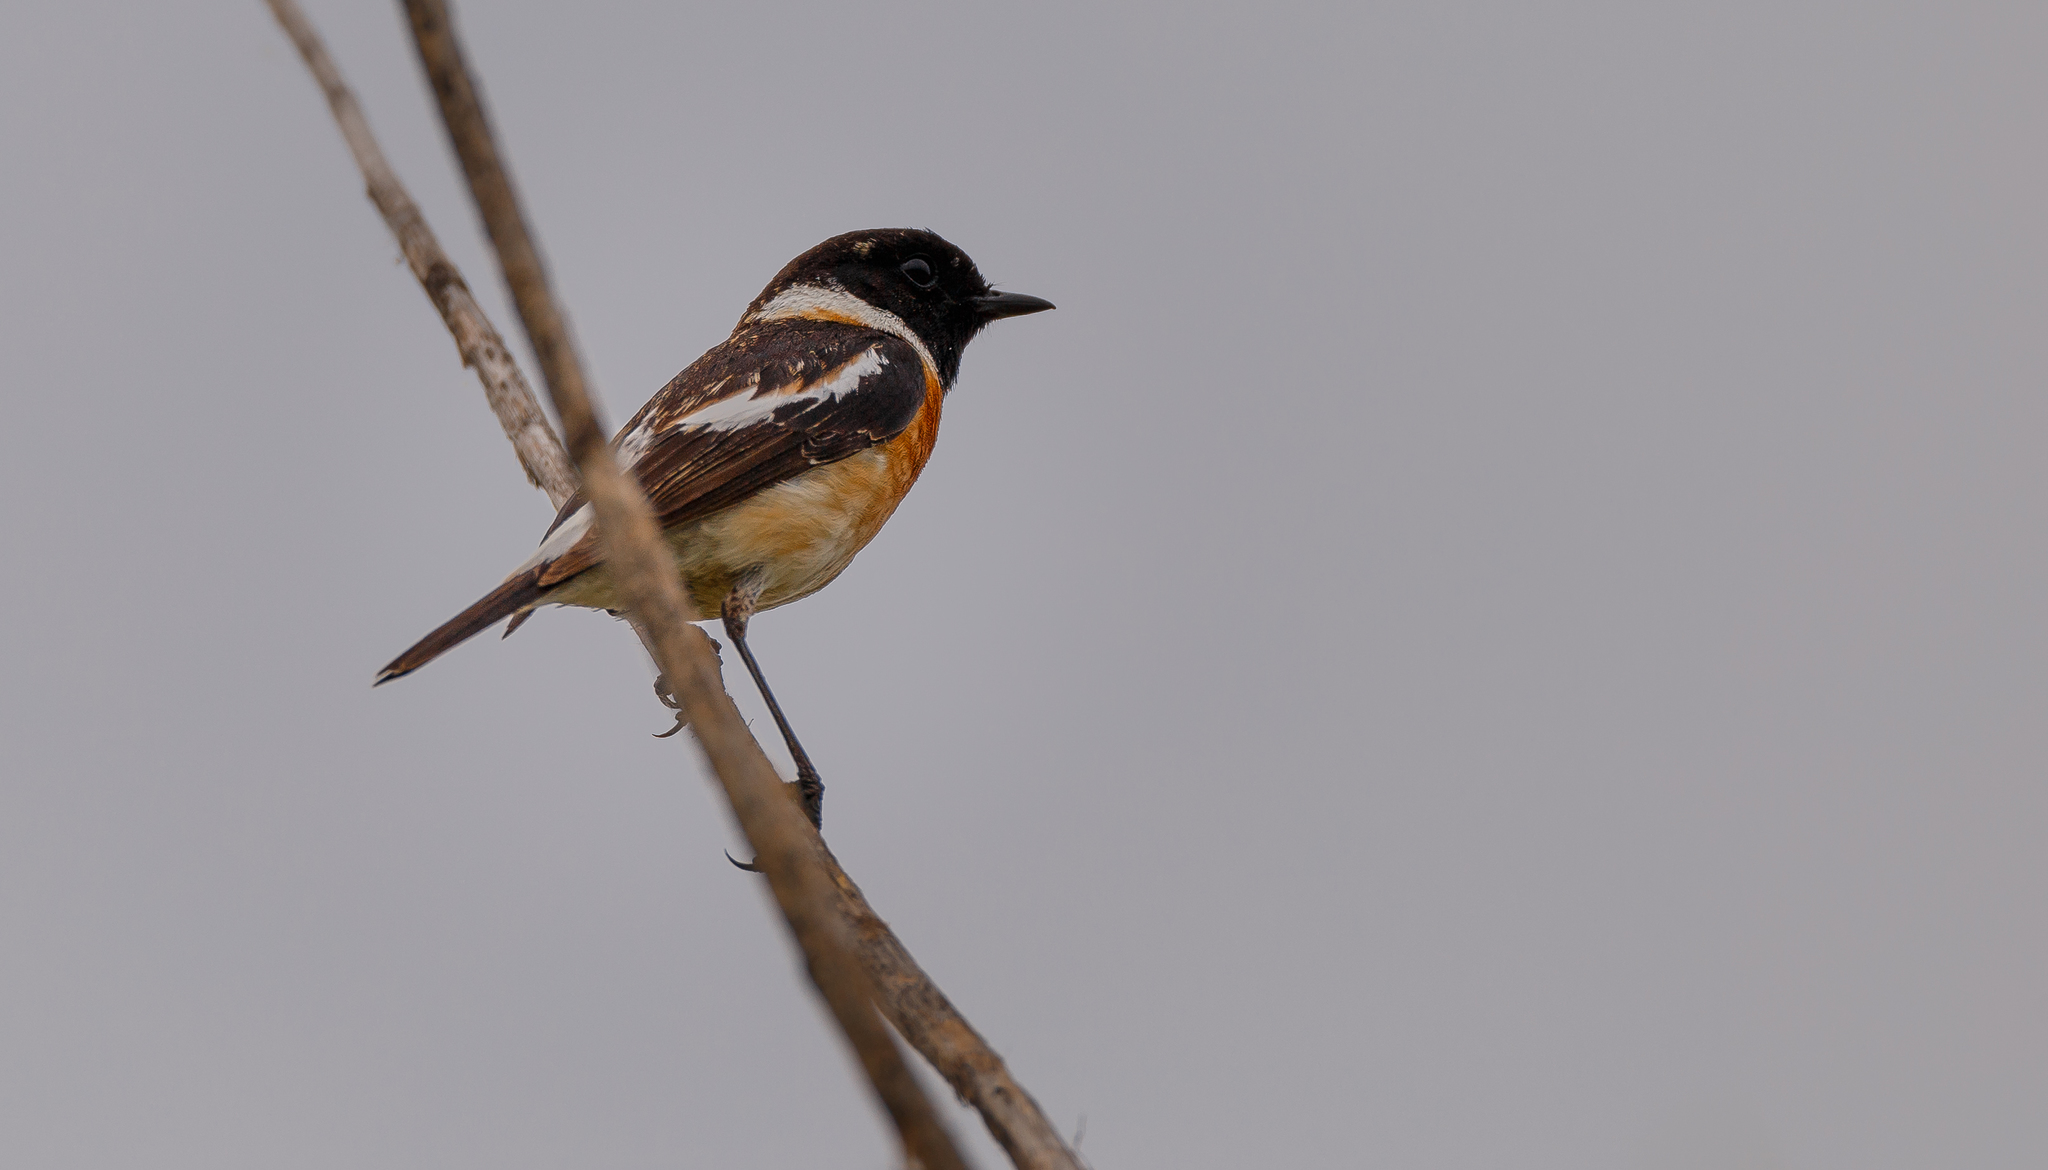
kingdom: Animalia
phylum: Chordata
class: Aves
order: Passeriformes
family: Muscicapidae
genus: Saxicola
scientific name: Saxicola maurus
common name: Siberian stonechat
